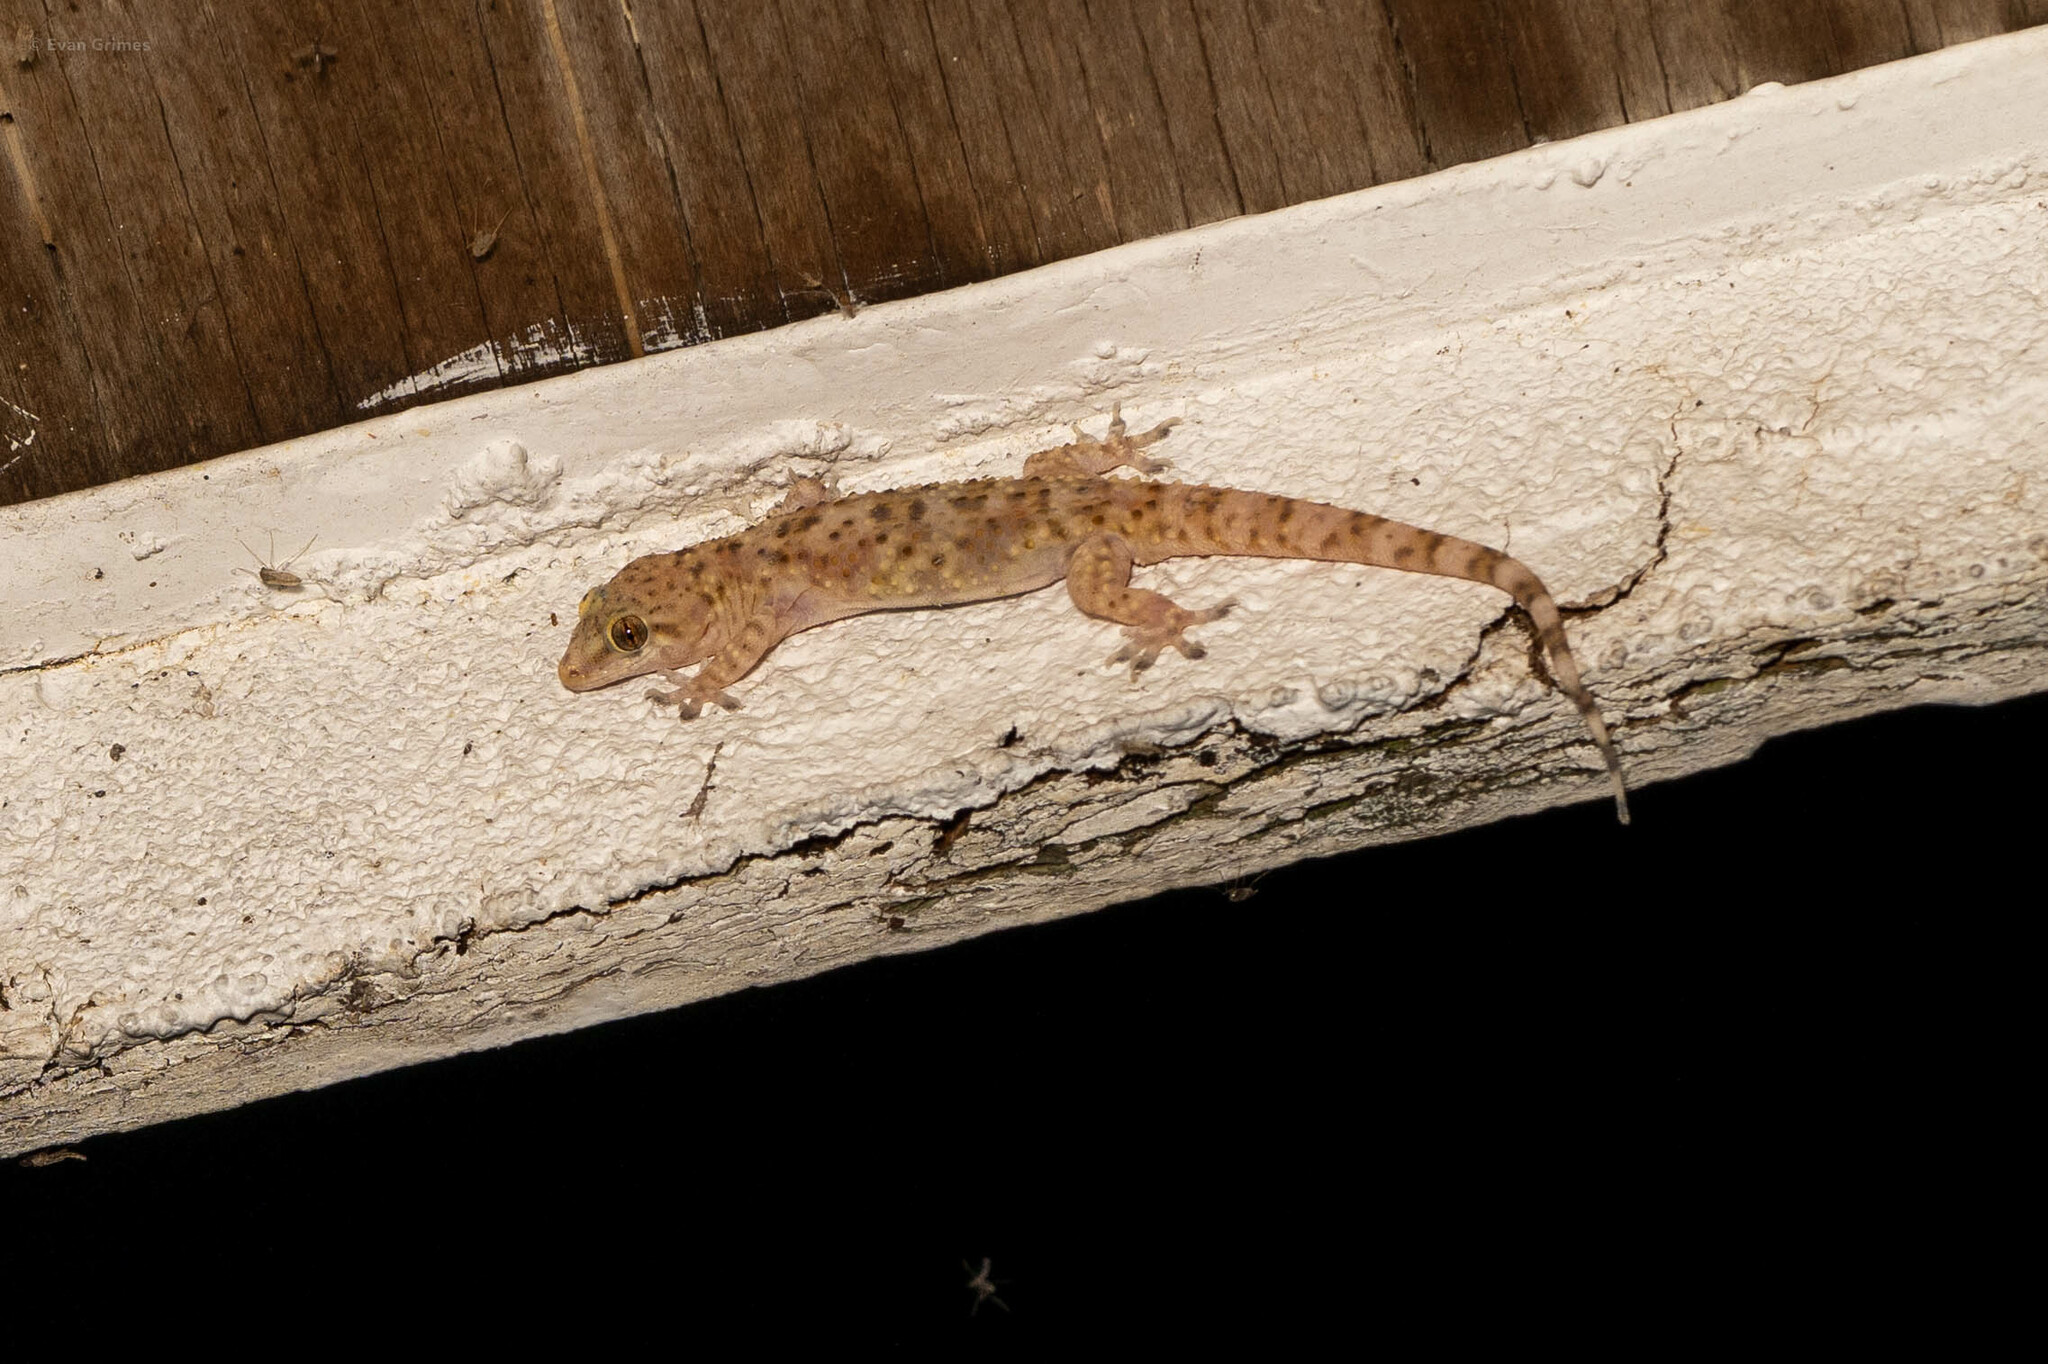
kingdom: Animalia
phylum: Chordata
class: Squamata
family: Gekkonidae
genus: Hemidactylus
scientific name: Hemidactylus turcicus
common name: Turkish gecko
